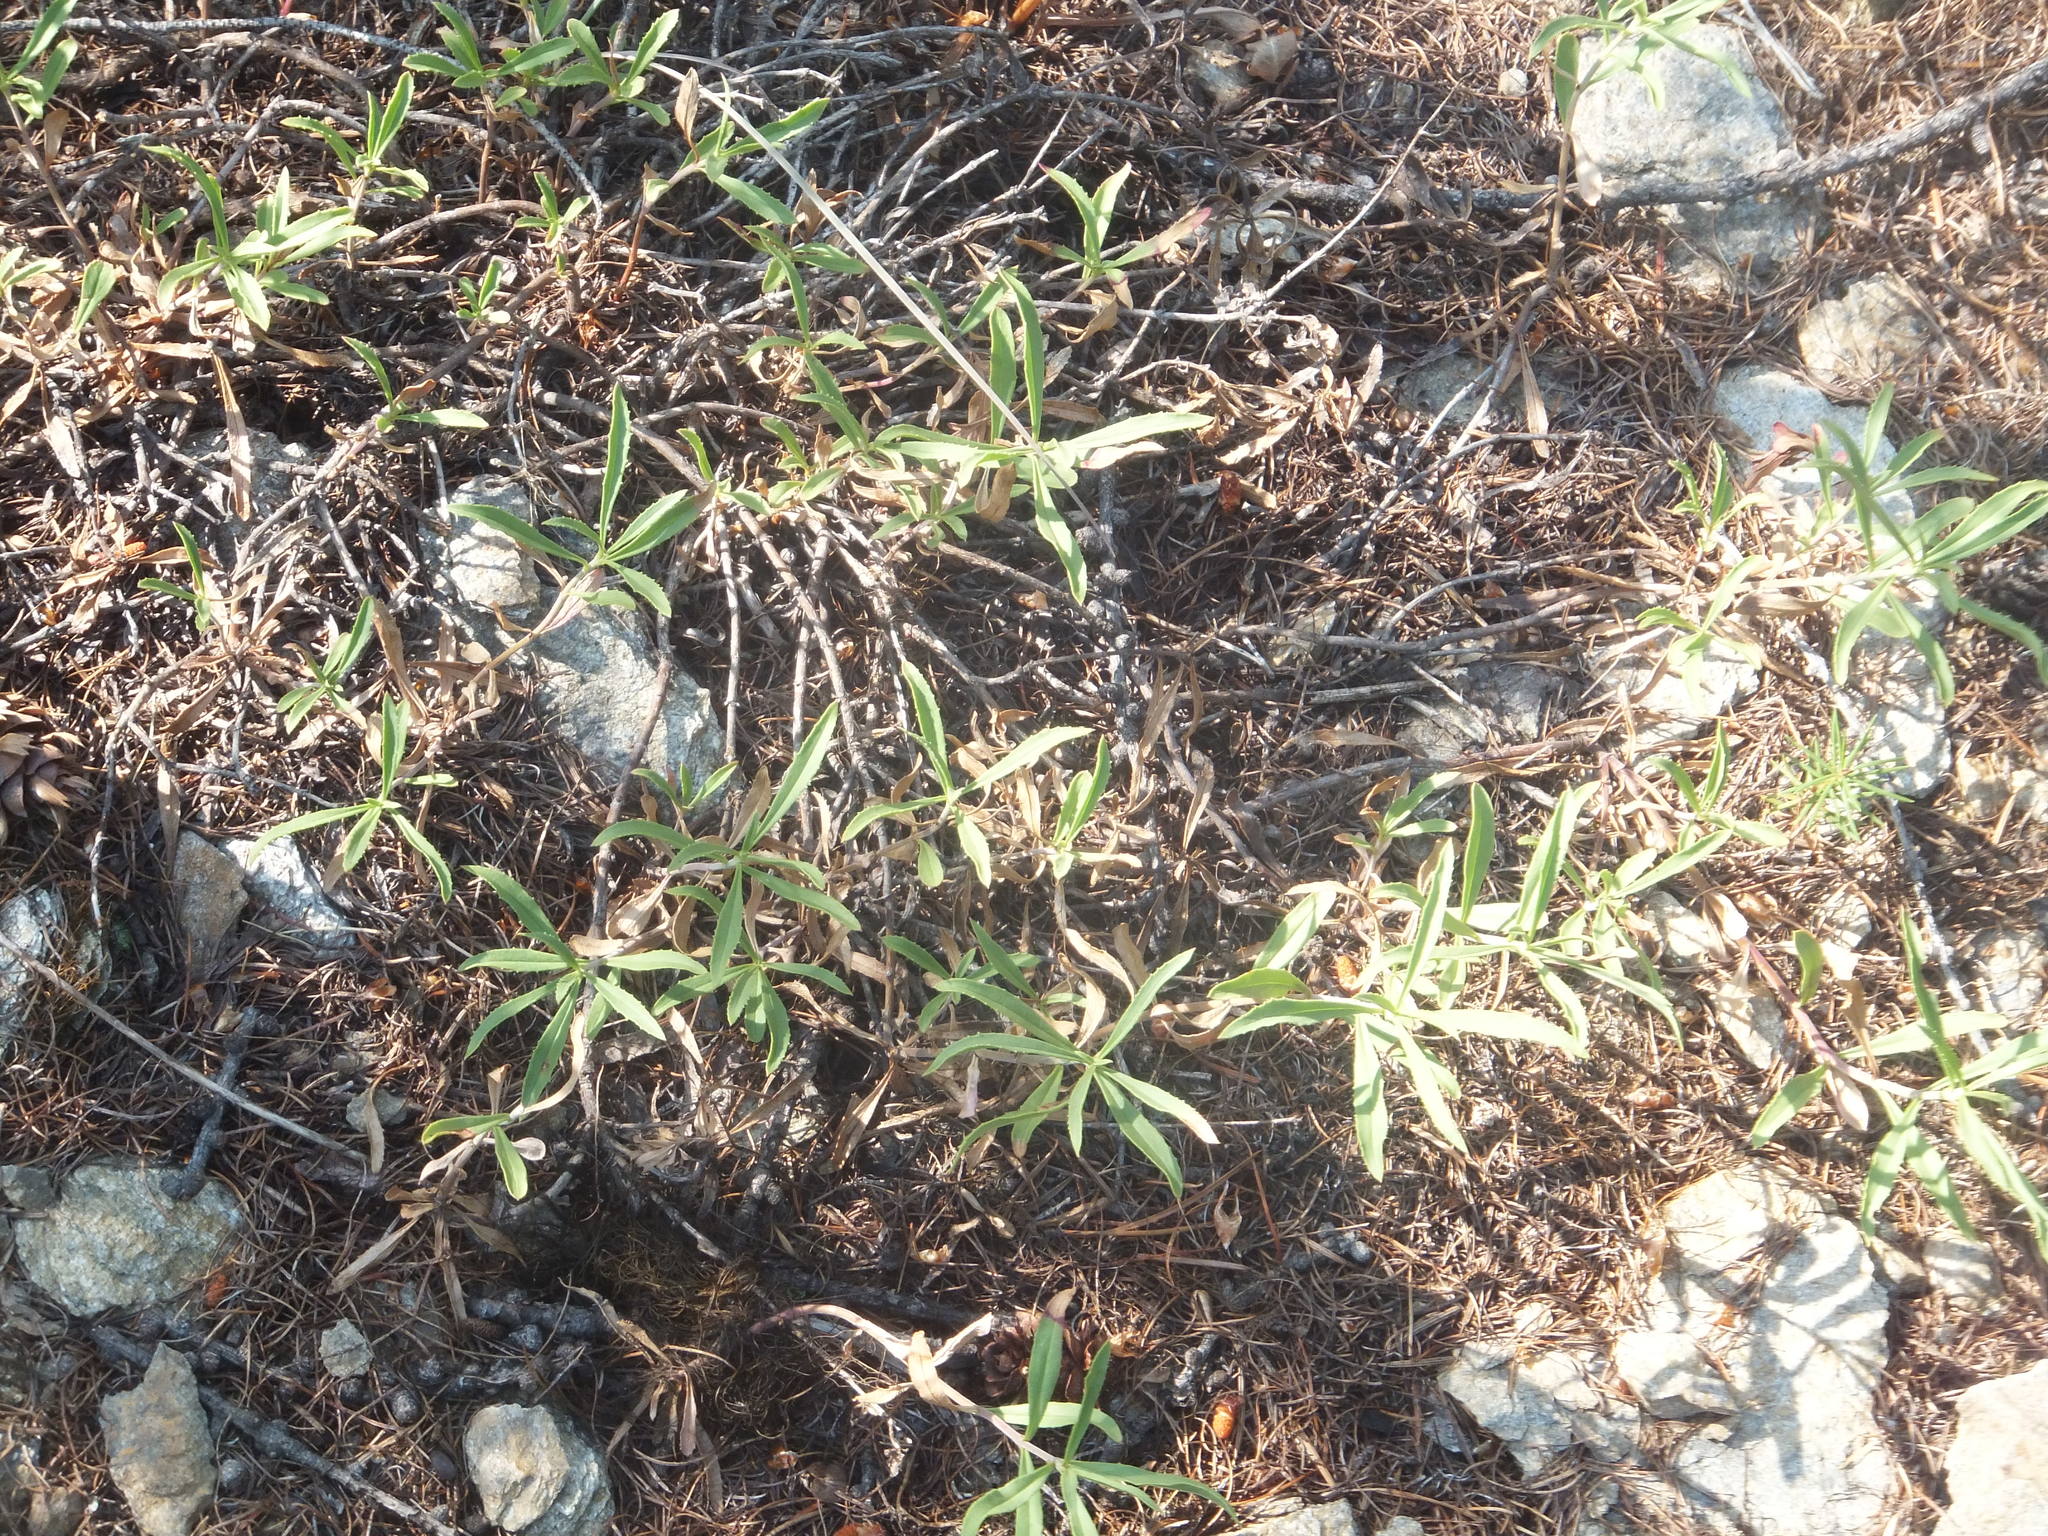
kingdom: Plantae
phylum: Tracheophyta
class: Magnoliopsida
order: Lamiales
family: Plantaginaceae
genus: Penstemon
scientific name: Penstemon fruticosus
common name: Bush penstemon
